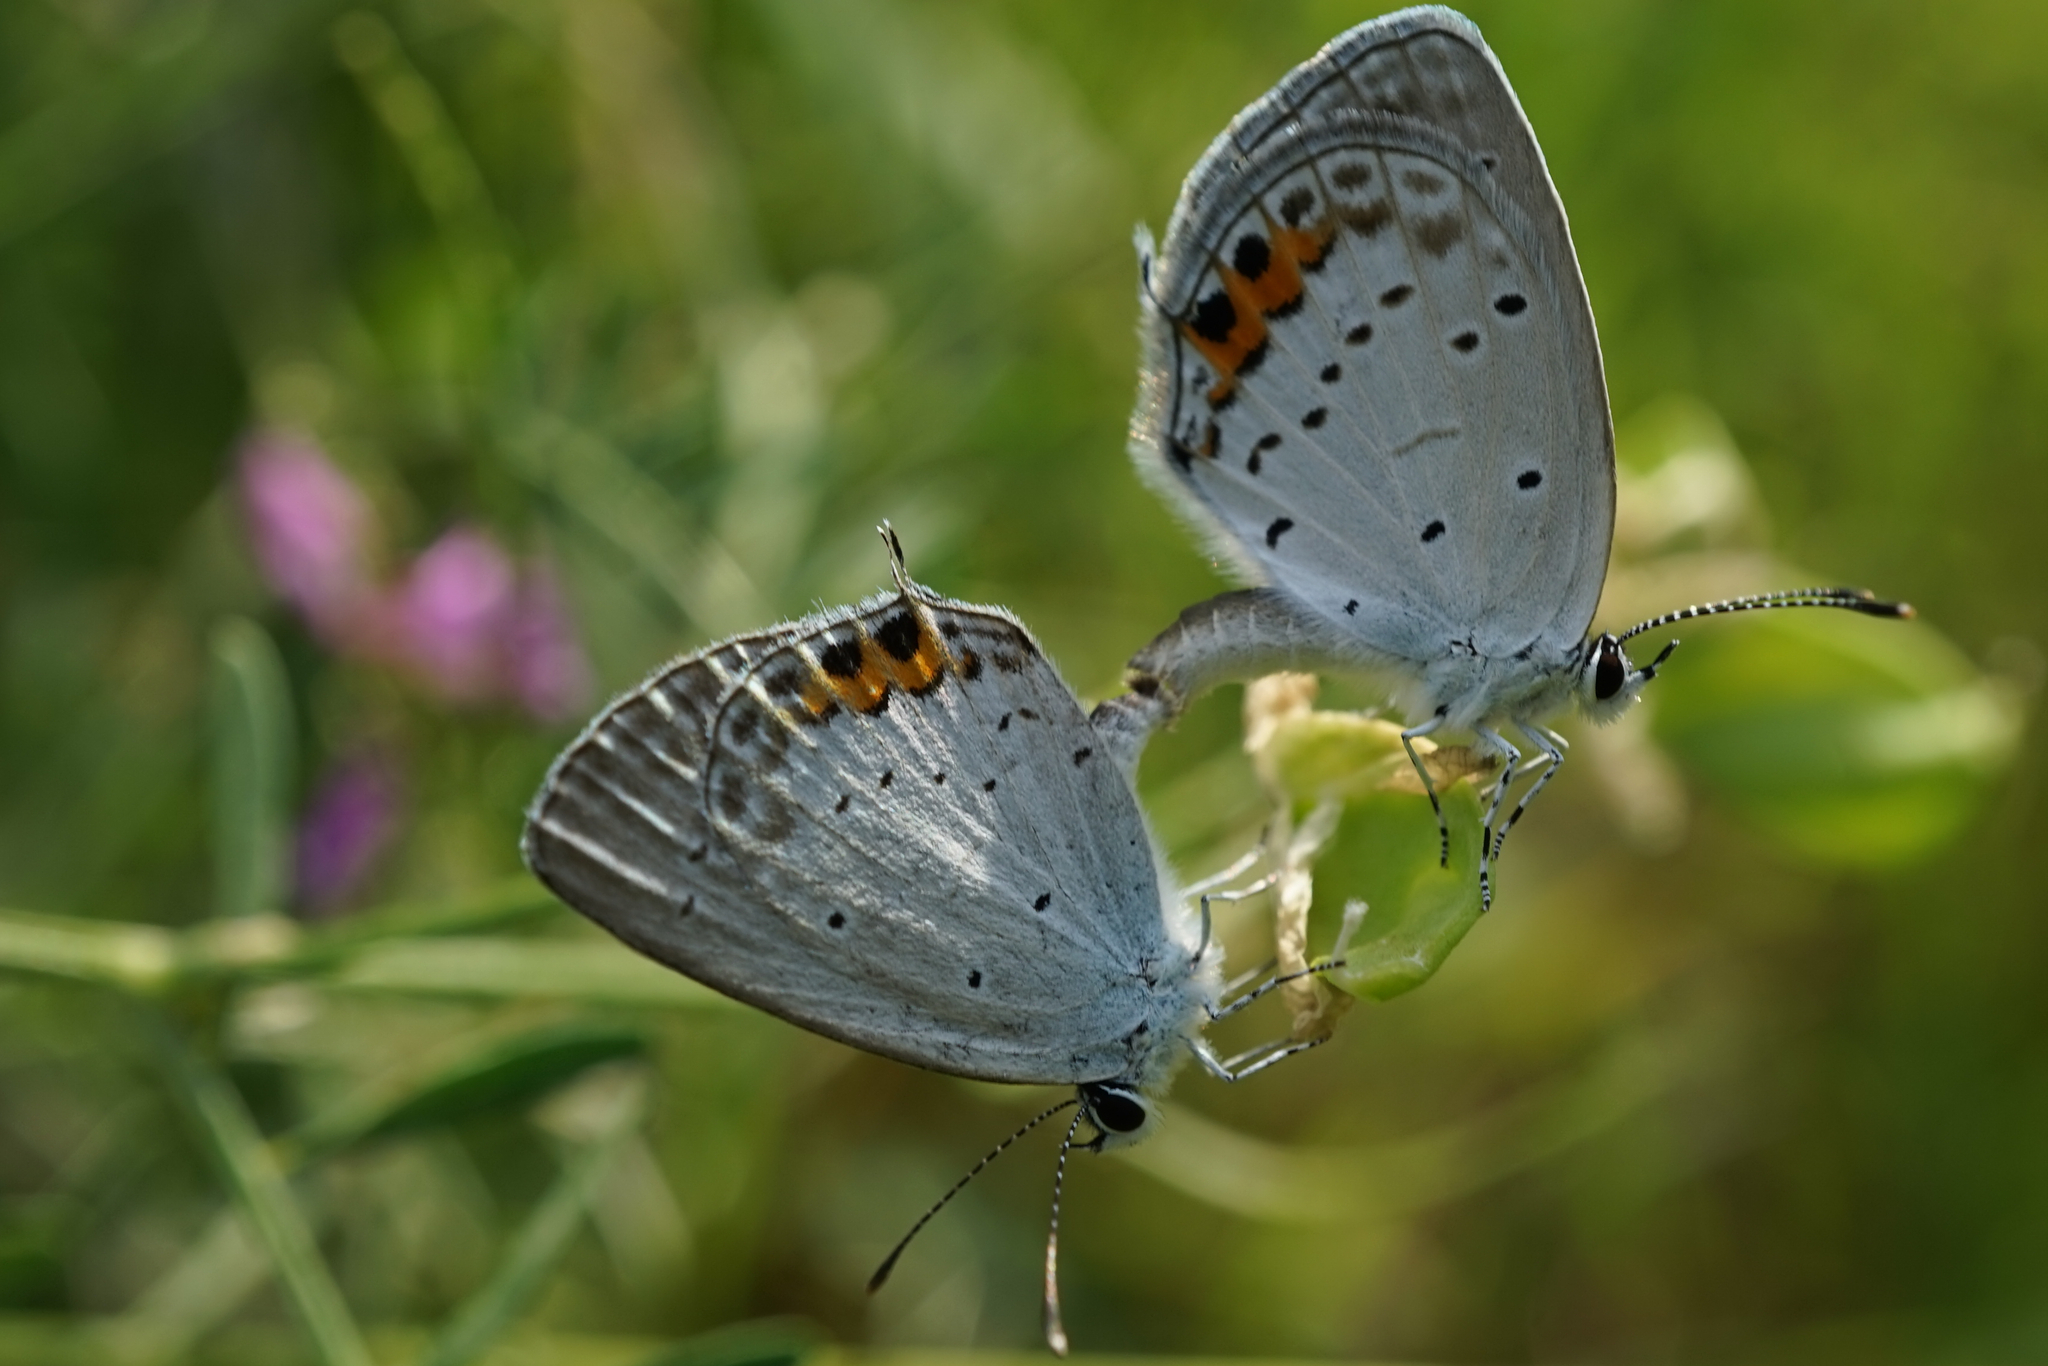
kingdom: Animalia
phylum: Arthropoda
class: Insecta
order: Lepidoptera
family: Lycaenidae
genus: Elkalyce
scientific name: Elkalyce argiades
